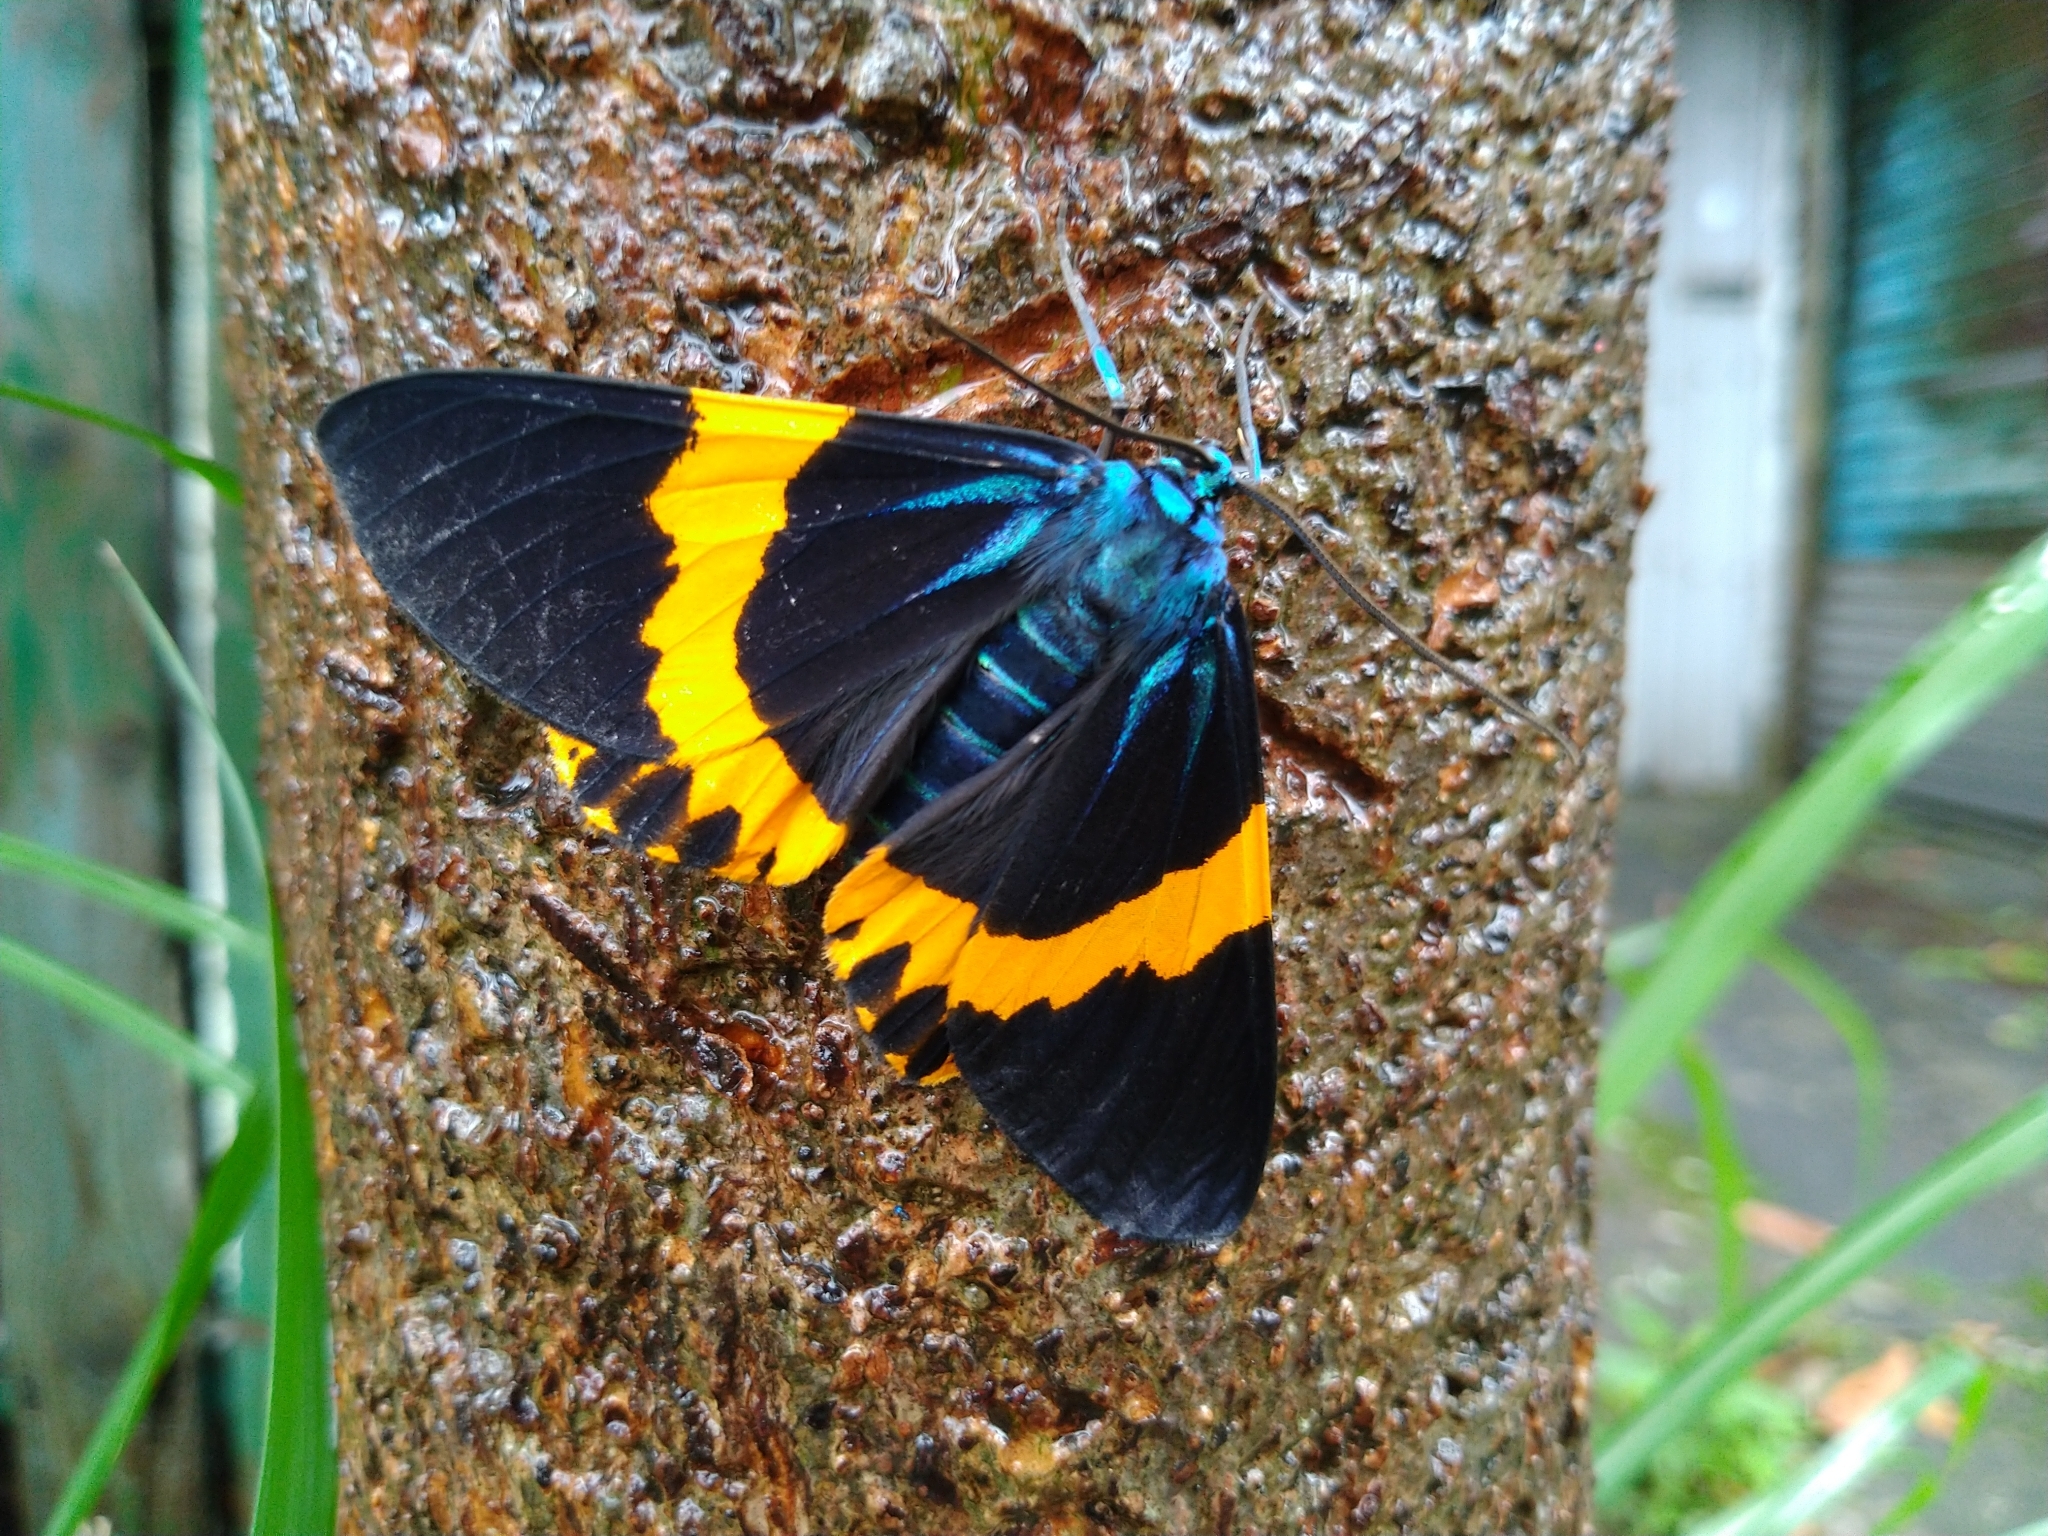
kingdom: Animalia
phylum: Arthropoda
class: Insecta
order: Lepidoptera
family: Geometridae
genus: Milionia
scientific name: Milionia basalis
